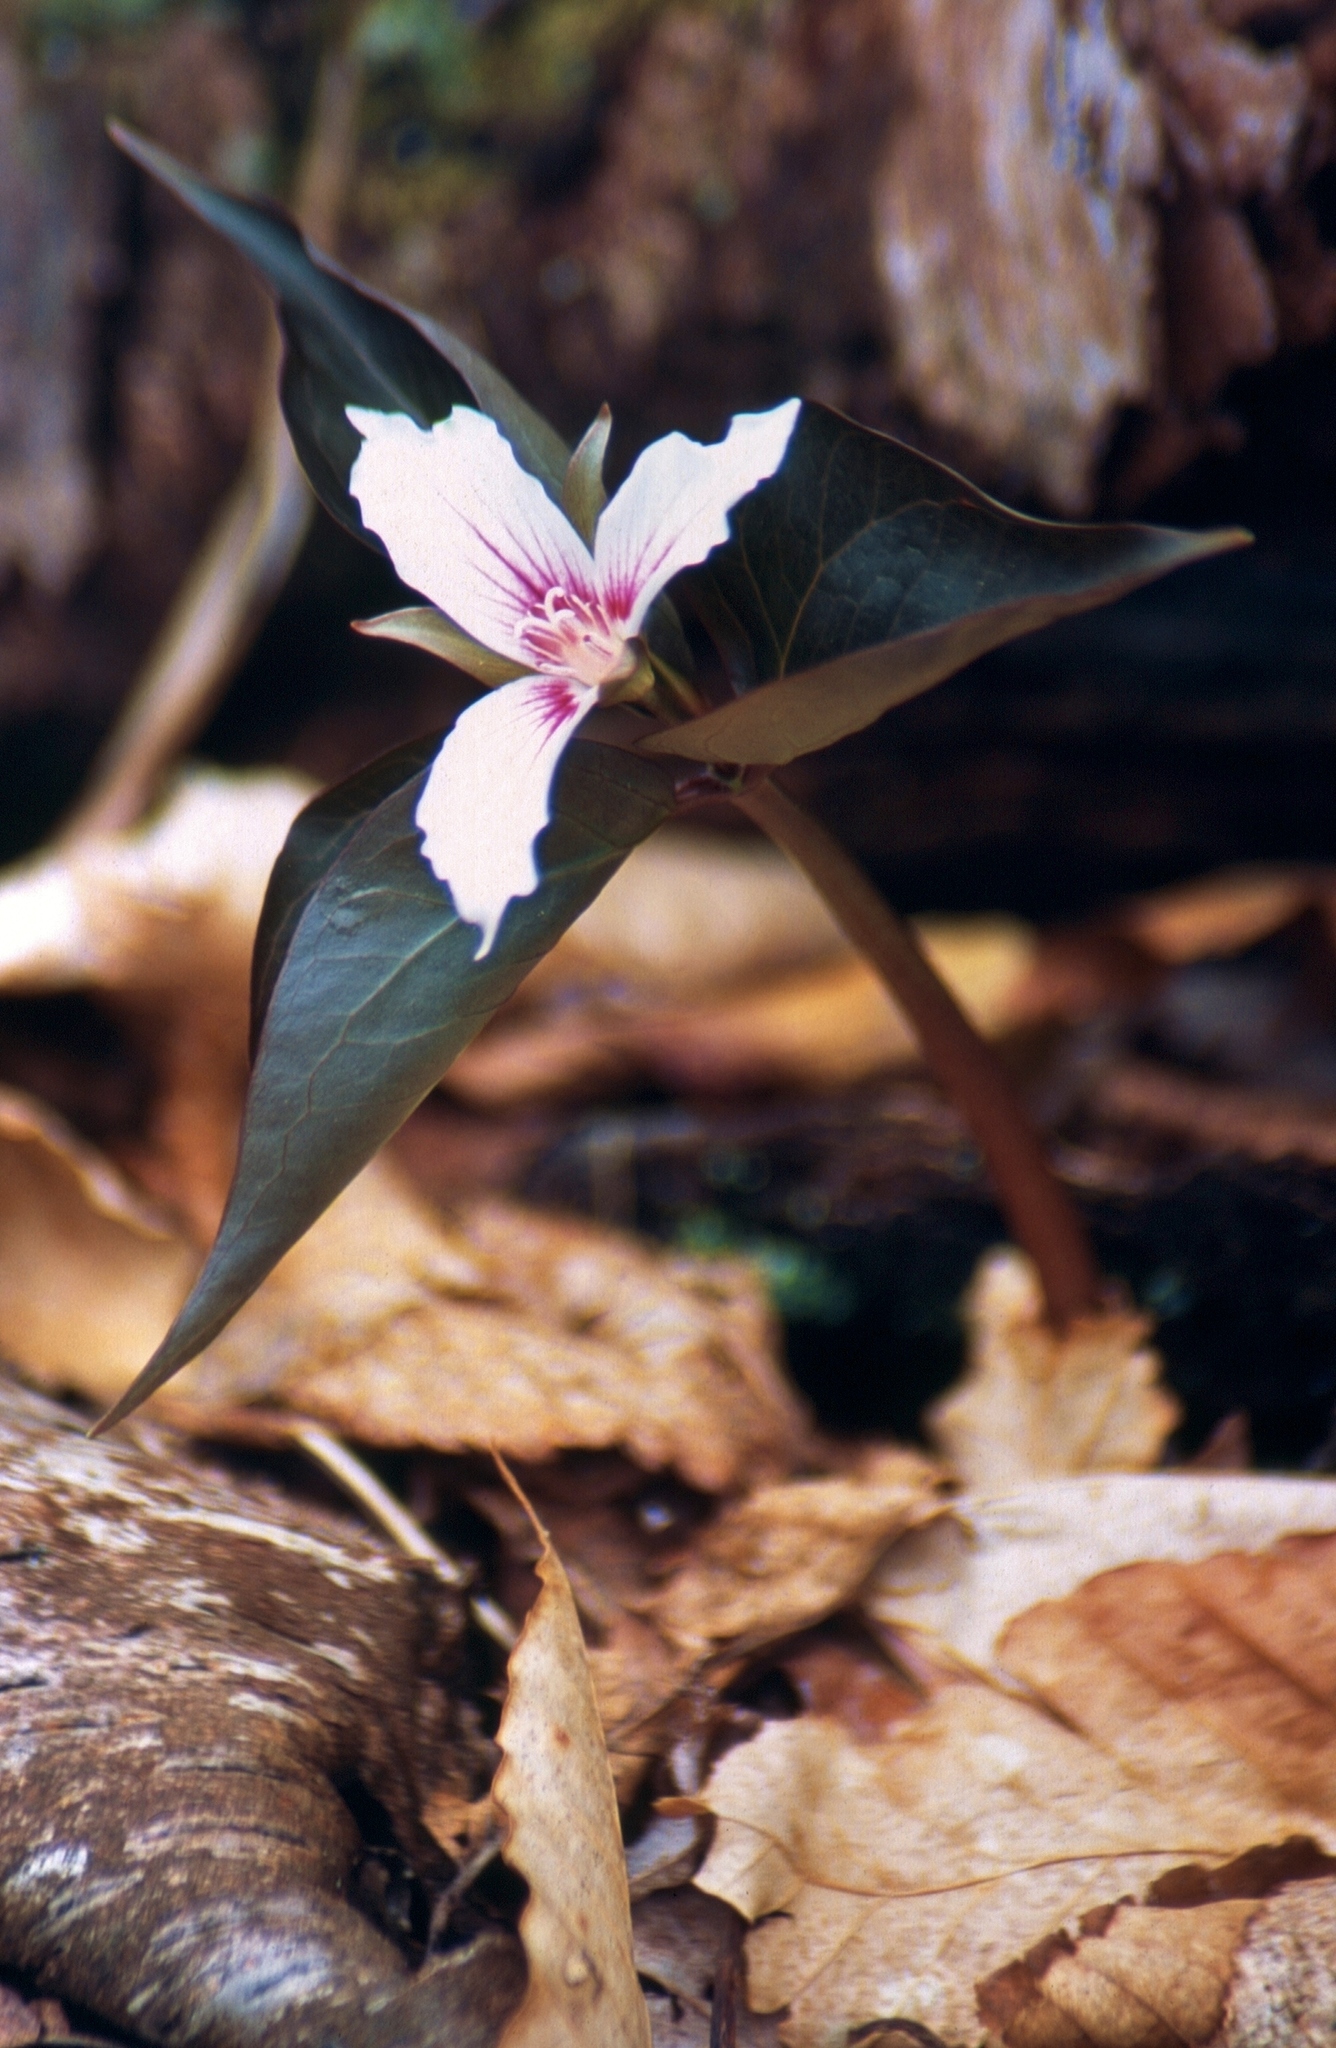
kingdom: Plantae
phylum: Tracheophyta
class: Liliopsida
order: Liliales
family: Melanthiaceae
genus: Trillium
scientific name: Trillium undulatum
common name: Paint trillium
